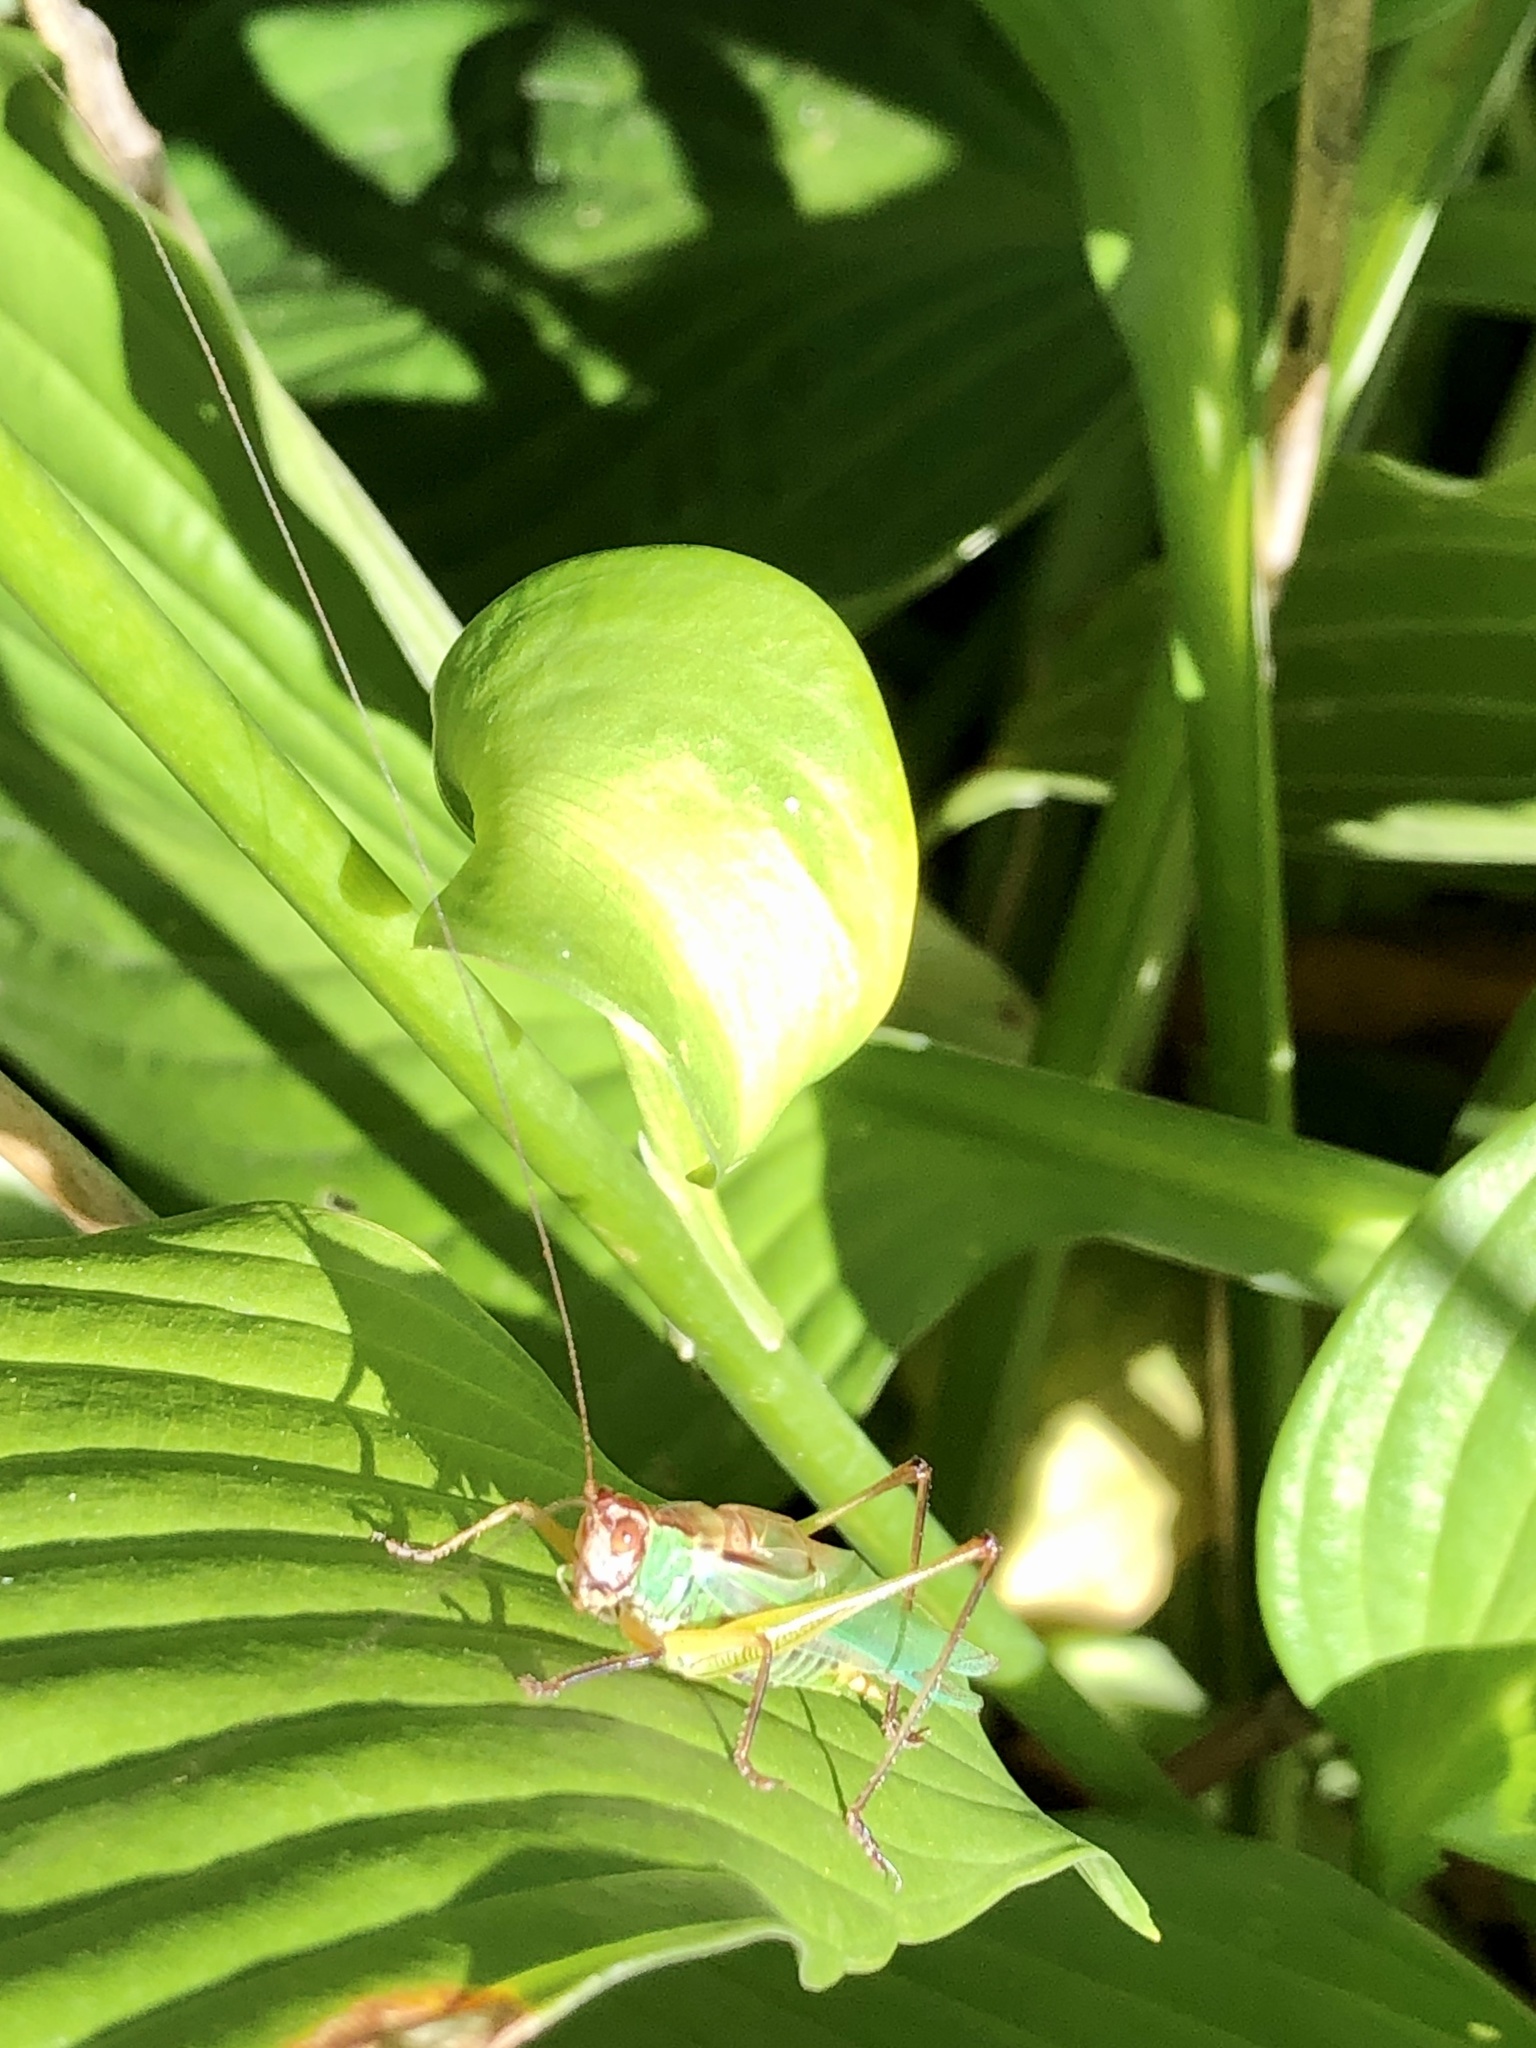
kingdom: Animalia
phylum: Arthropoda
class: Insecta
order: Orthoptera
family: Tettigoniidae
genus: Orchelimum
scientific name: Orchelimum nigripes
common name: Black-legged meadow katydid
